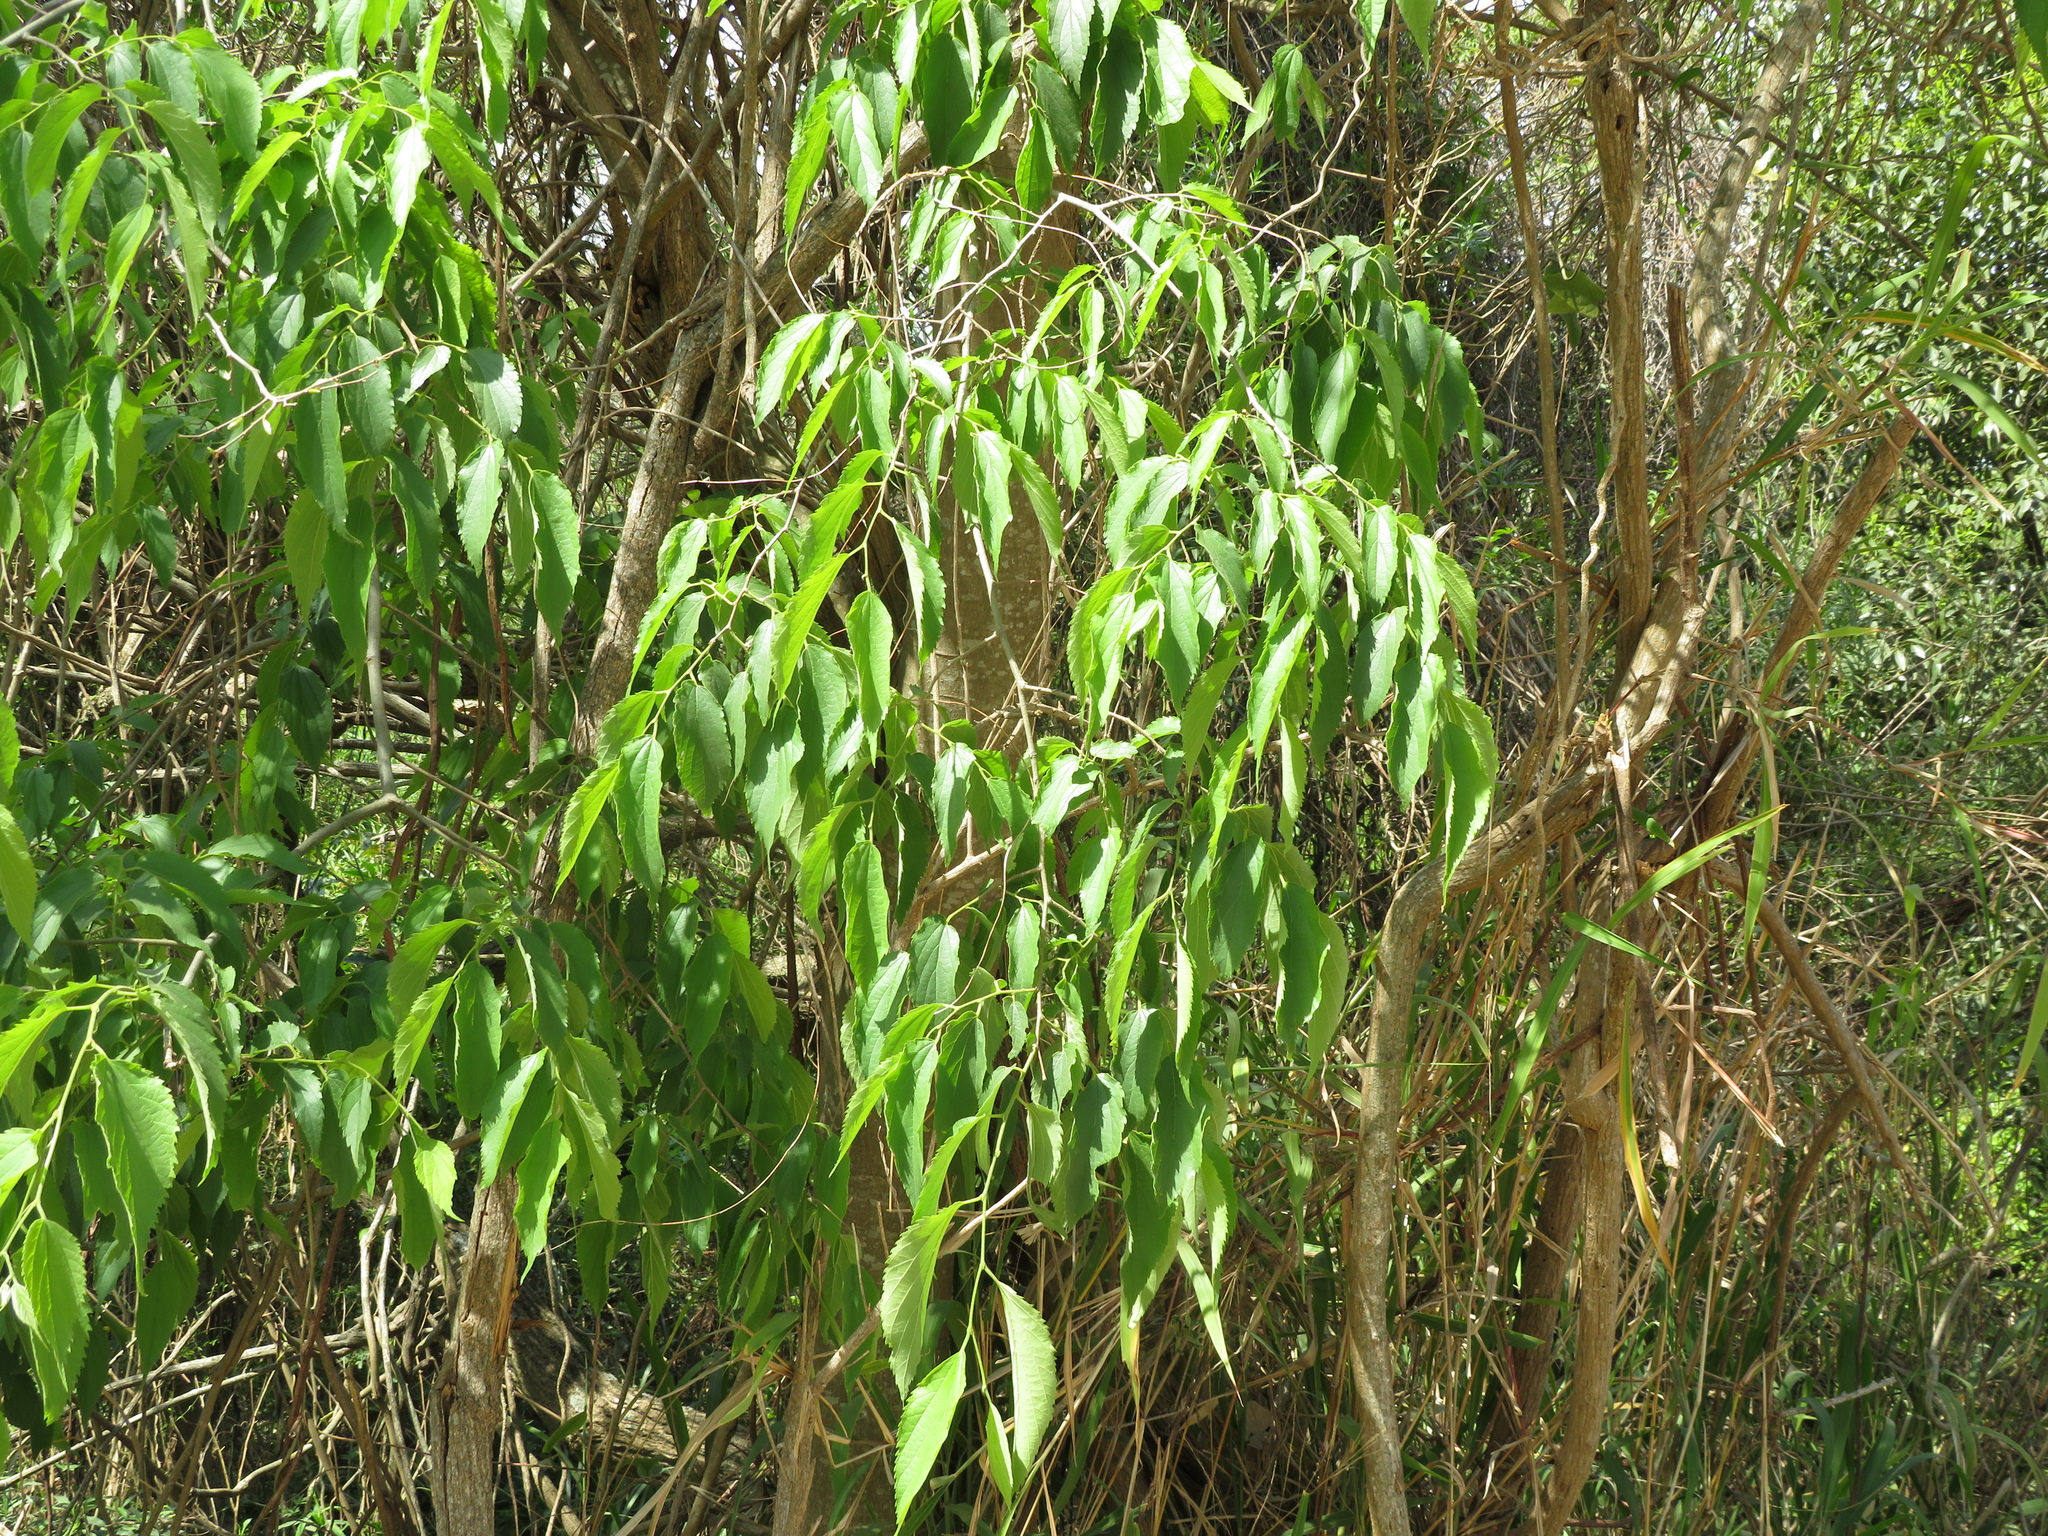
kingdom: Plantae
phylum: Tracheophyta
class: Magnoliopsida
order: Rosales
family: Cannabaceae
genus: Celtis
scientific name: Celtis australis
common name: European hackberry
